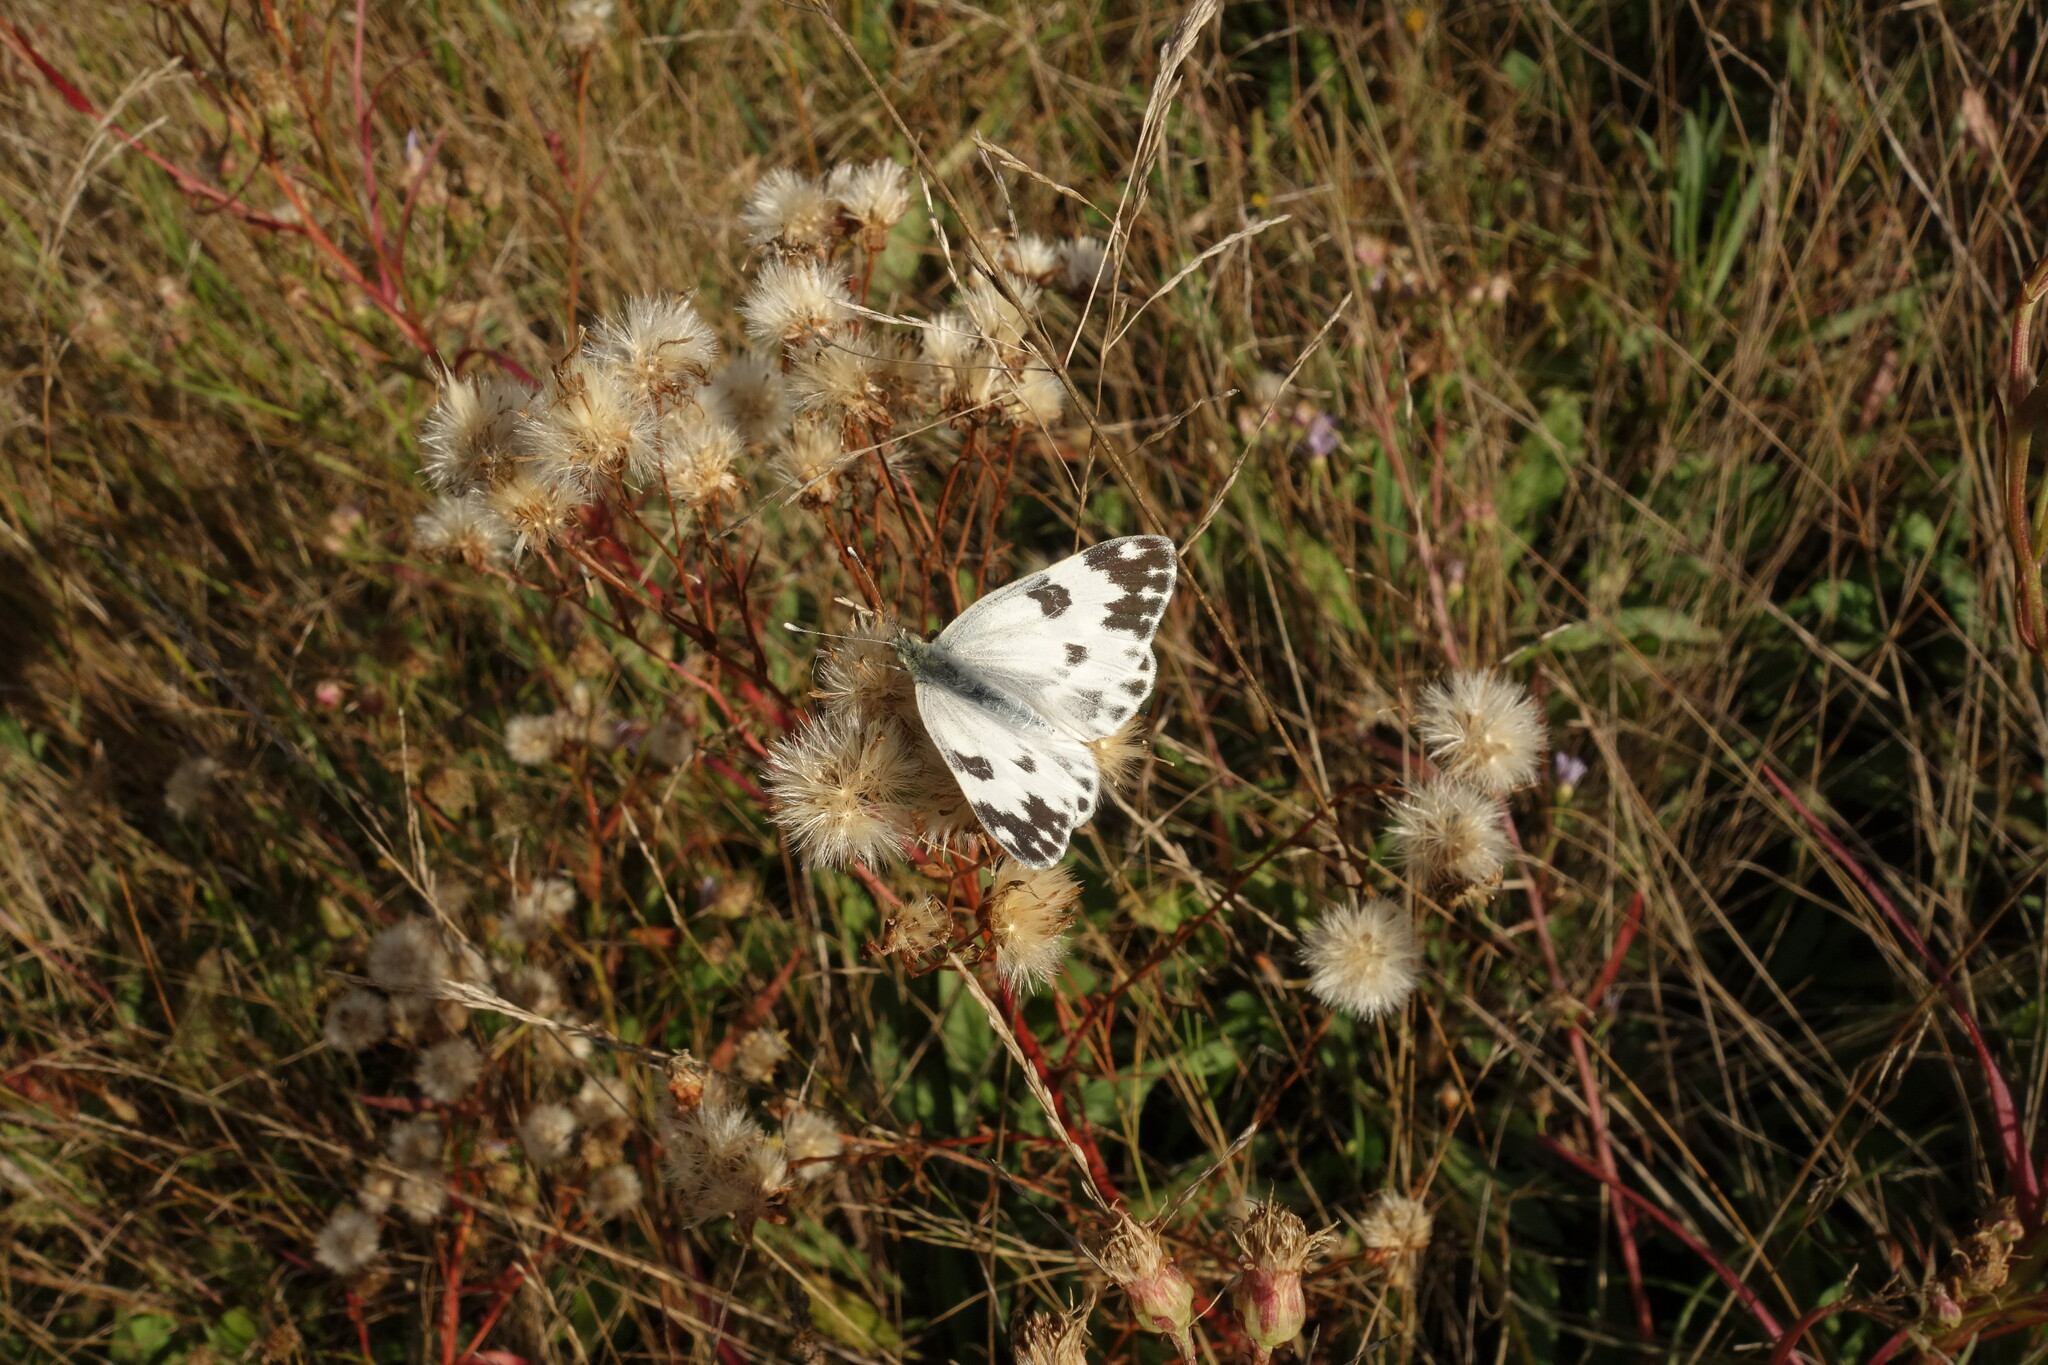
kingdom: Animalia
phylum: Arthropoda
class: Insecta
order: Lepidoptera
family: Pieridae
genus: Pontia
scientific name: Pontia edusa
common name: Eastern bath white
